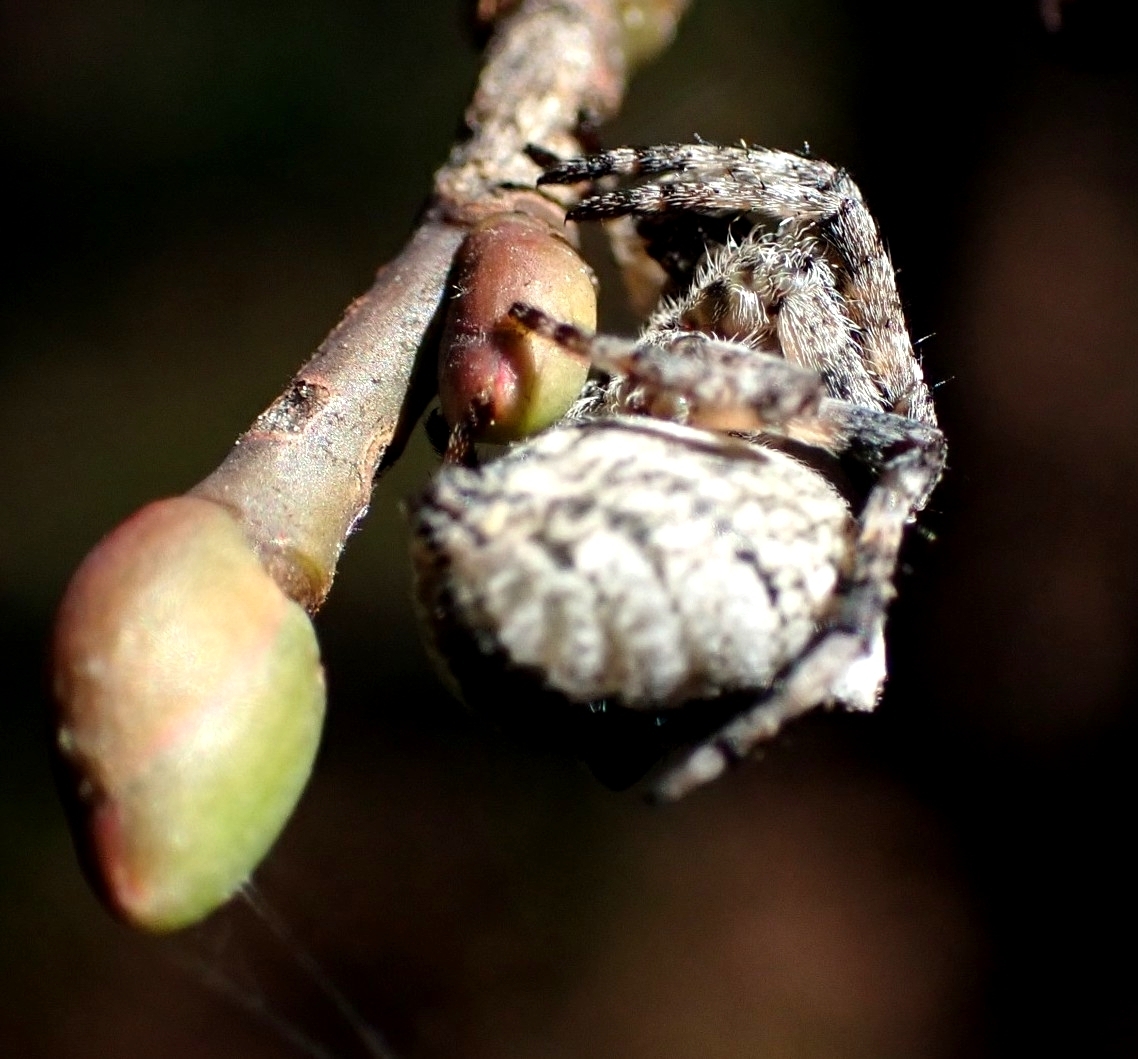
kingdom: Animalia
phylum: Arthropoda
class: Arachnida
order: Araneae
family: Araneidae
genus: Araneus
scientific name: Araneus angulatus
